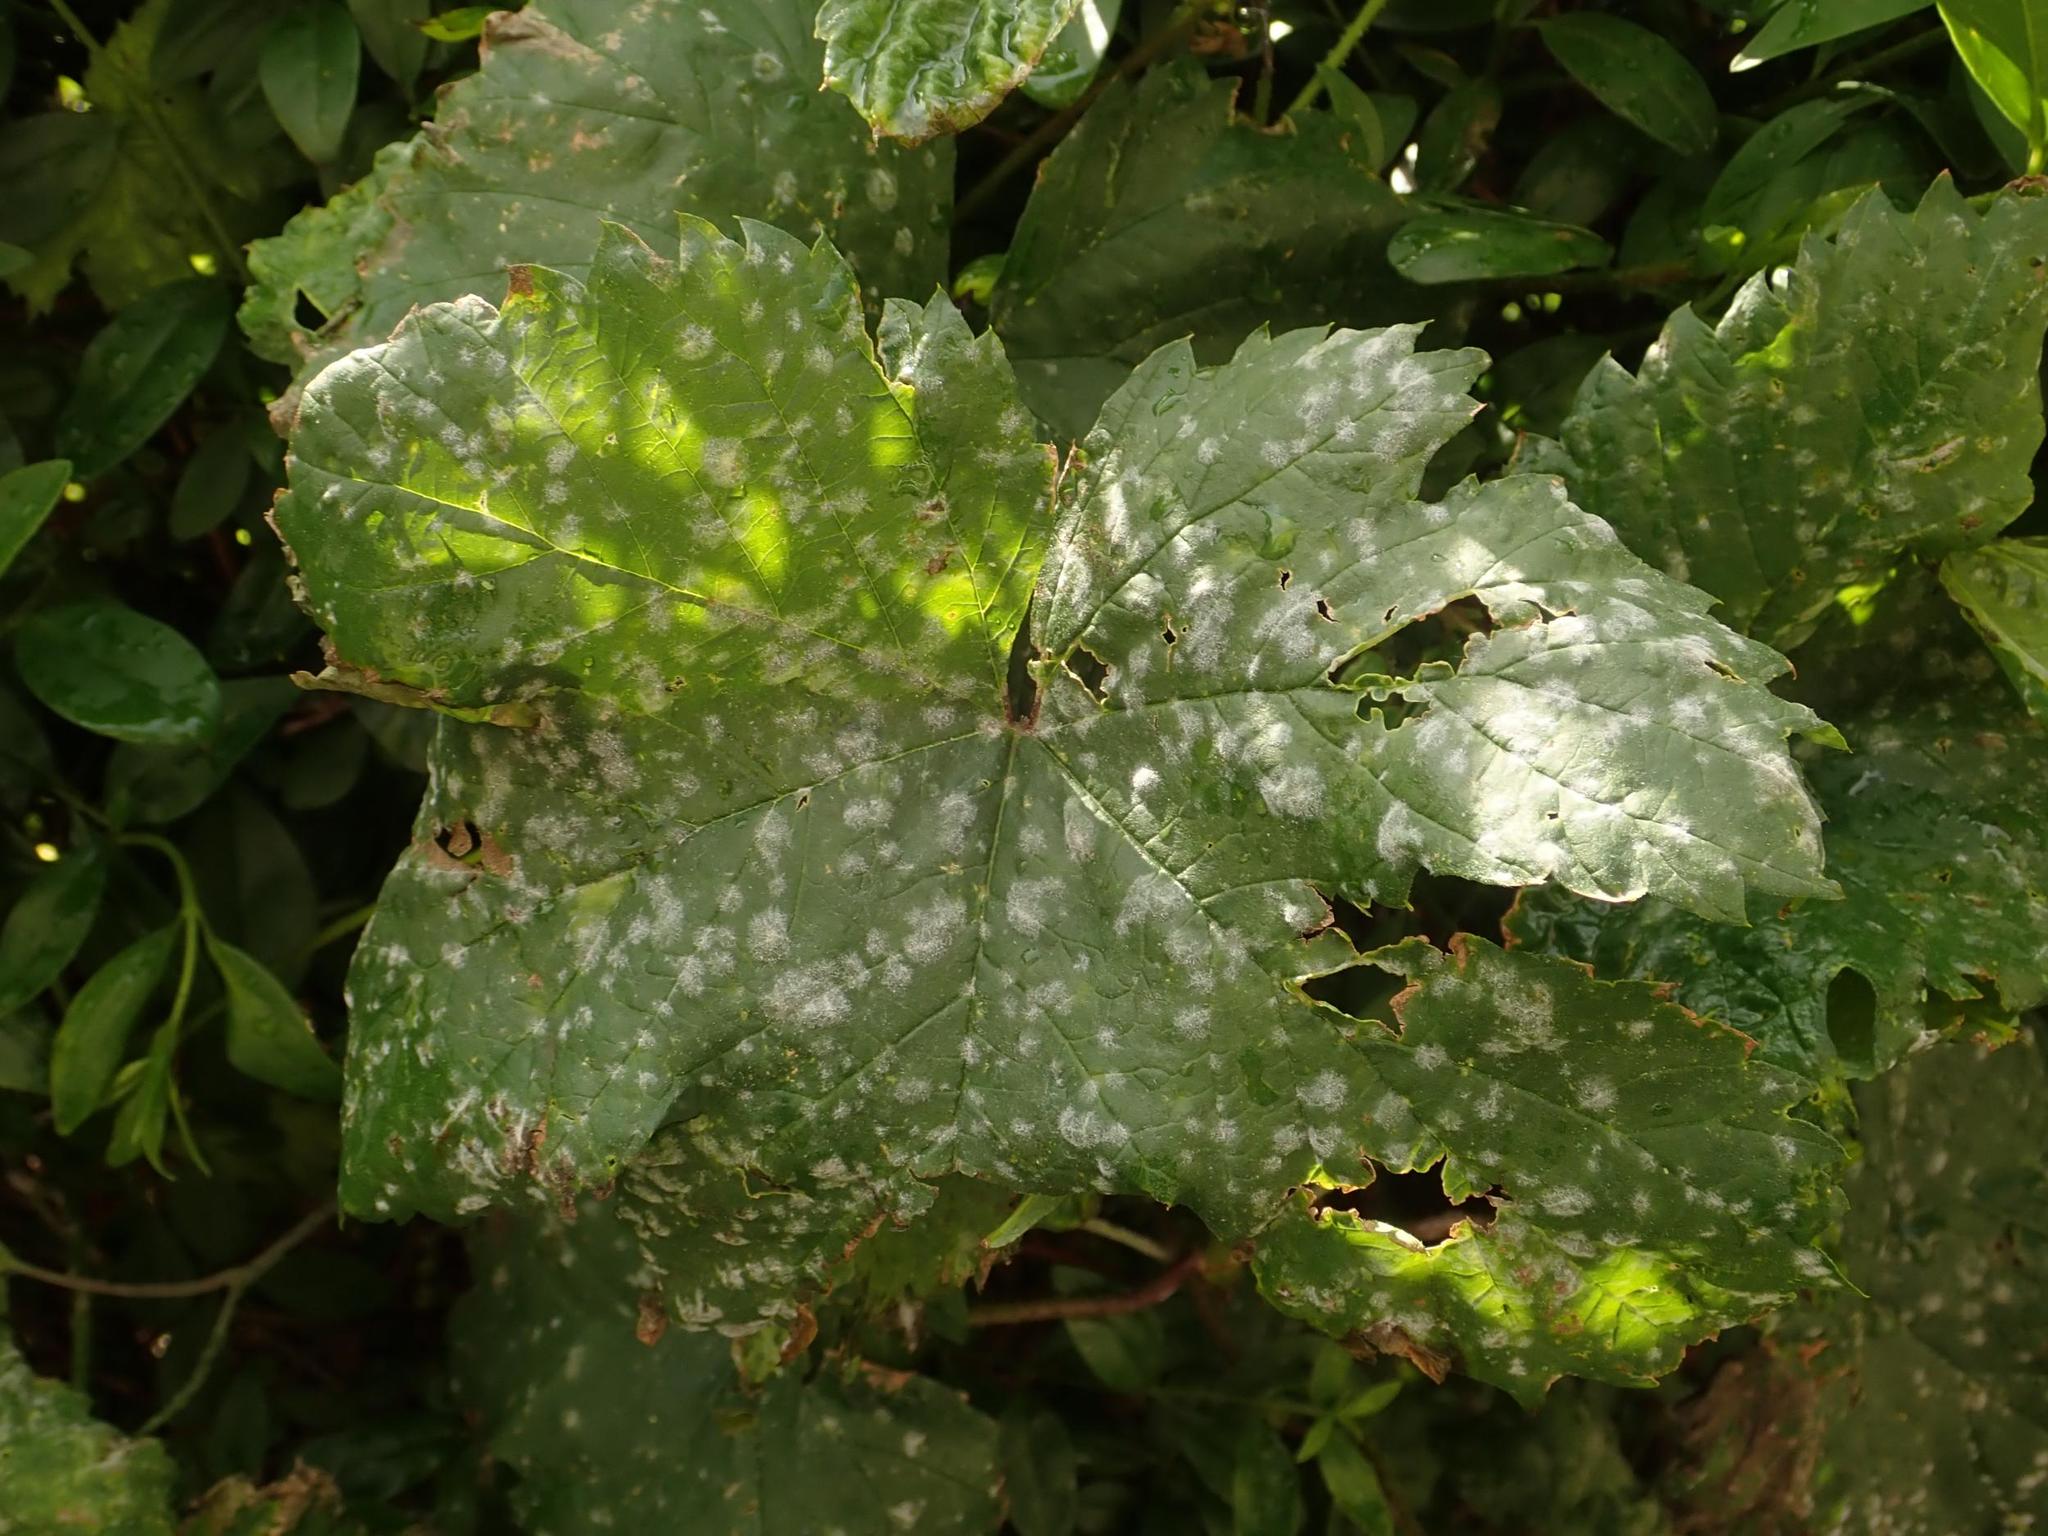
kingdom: Fungi
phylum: Ascomycota
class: Leotiomycetes
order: Helotiales
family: Erysiphaceae
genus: Podosphaera
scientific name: Podosphaera macularis
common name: Powdery mildew
